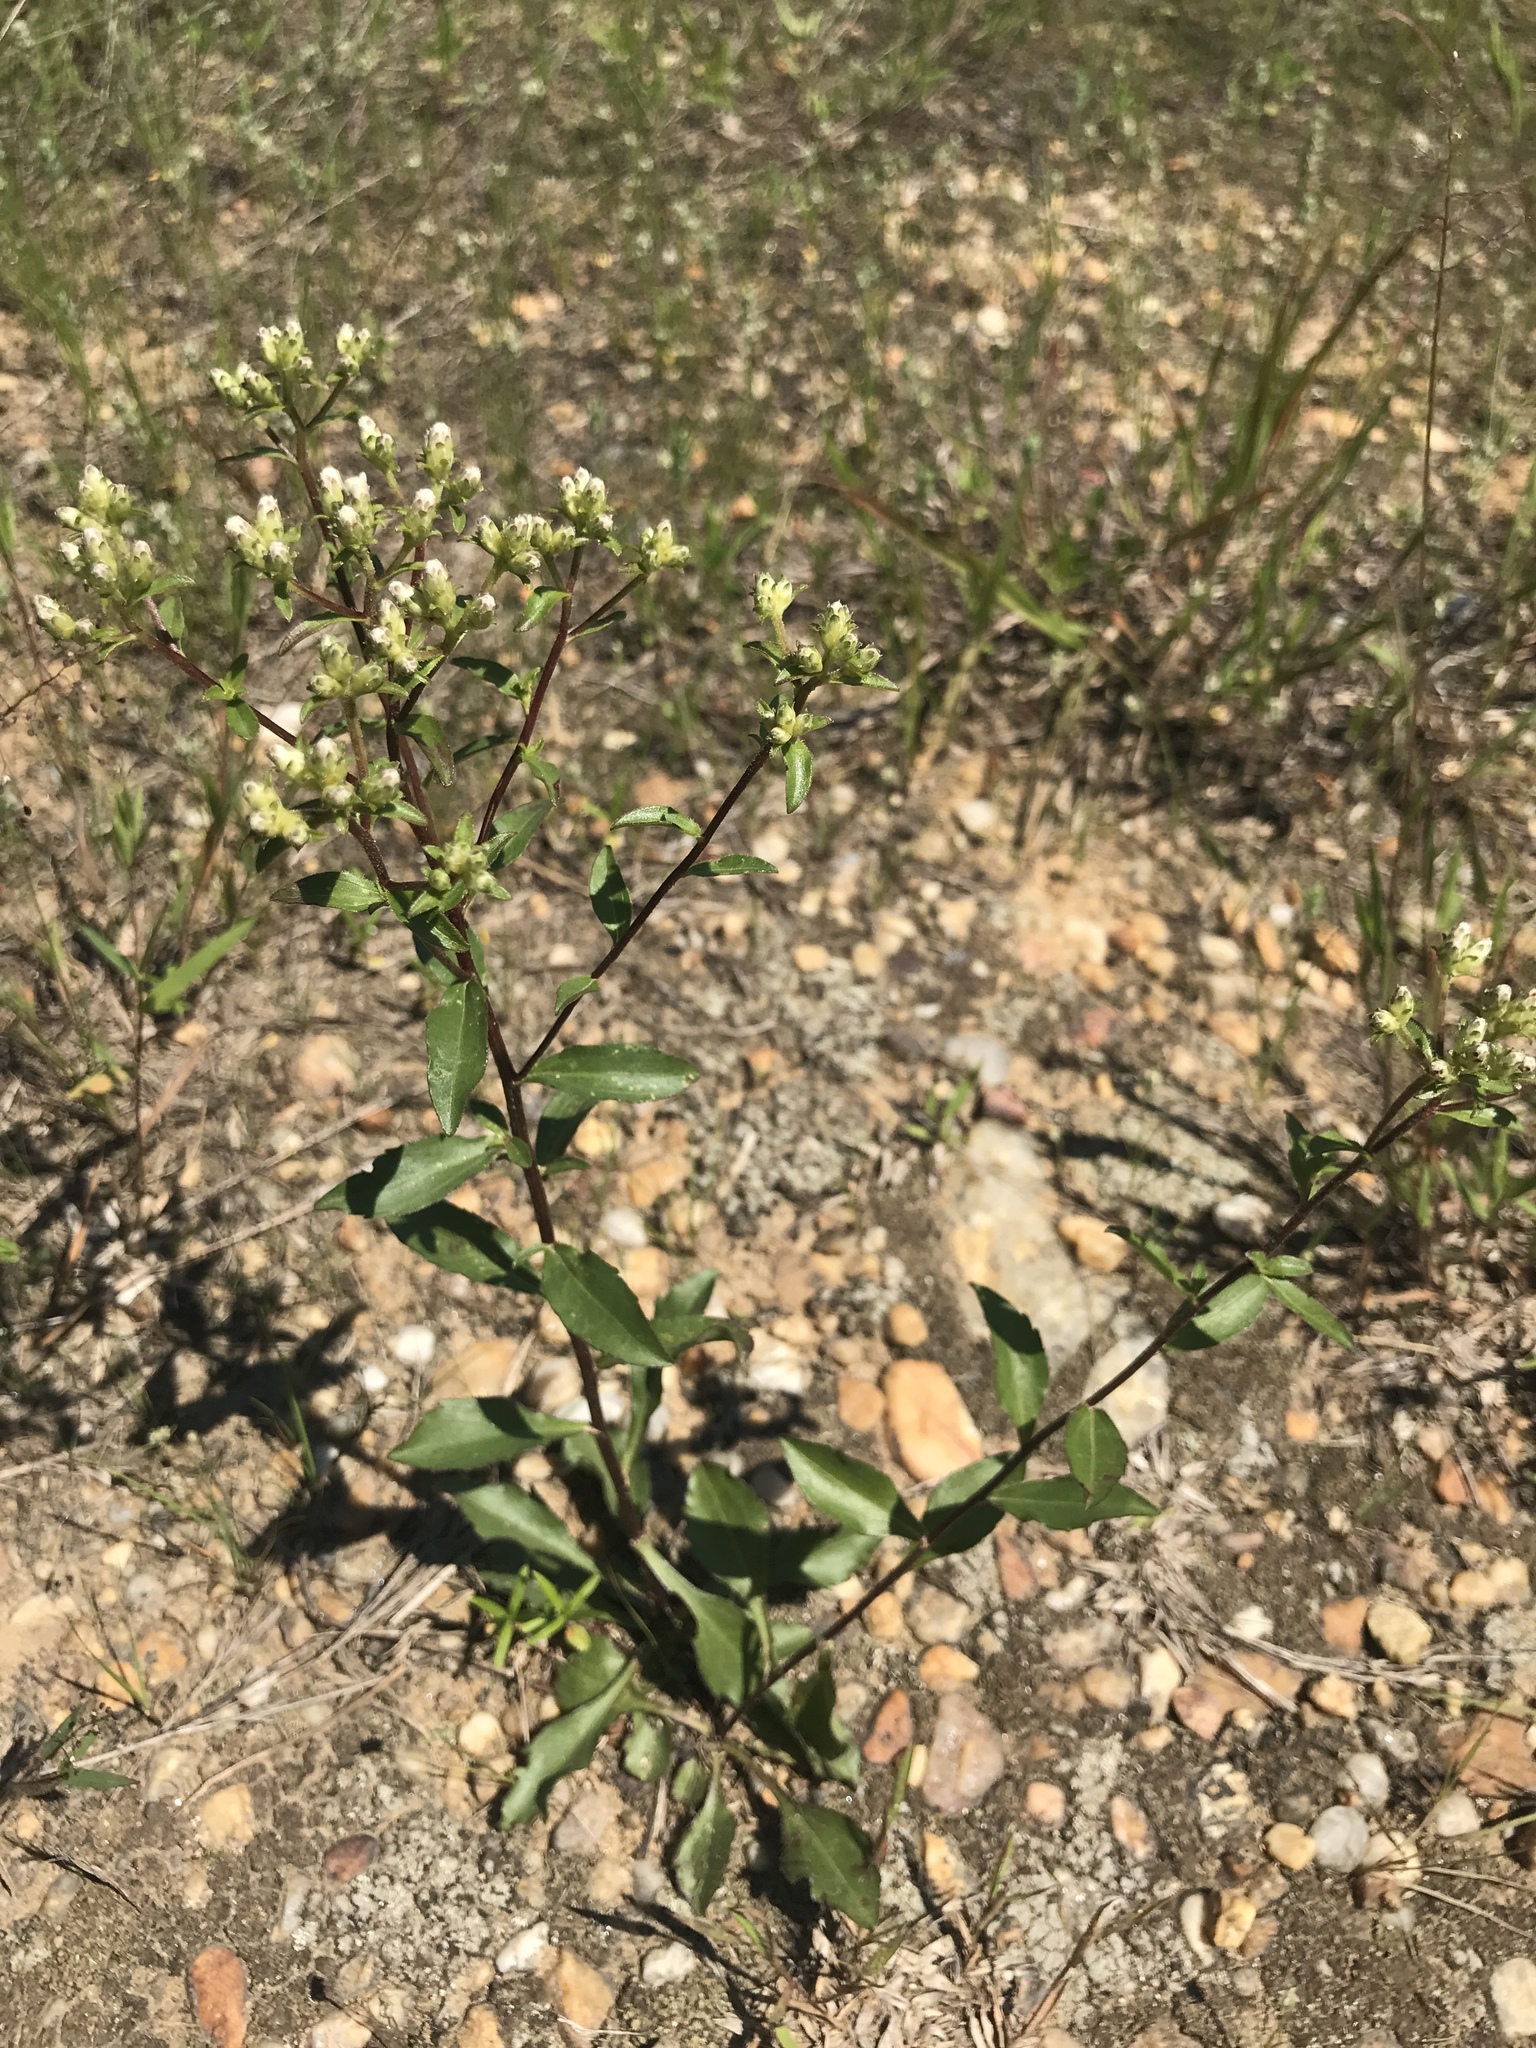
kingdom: Plantae
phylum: Tracheophyta
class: Magnoliopsida
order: Asterales
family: Asteraceae
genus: Sericocarpus
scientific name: Sericocarpus asteroides
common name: Toothed white-top aster
